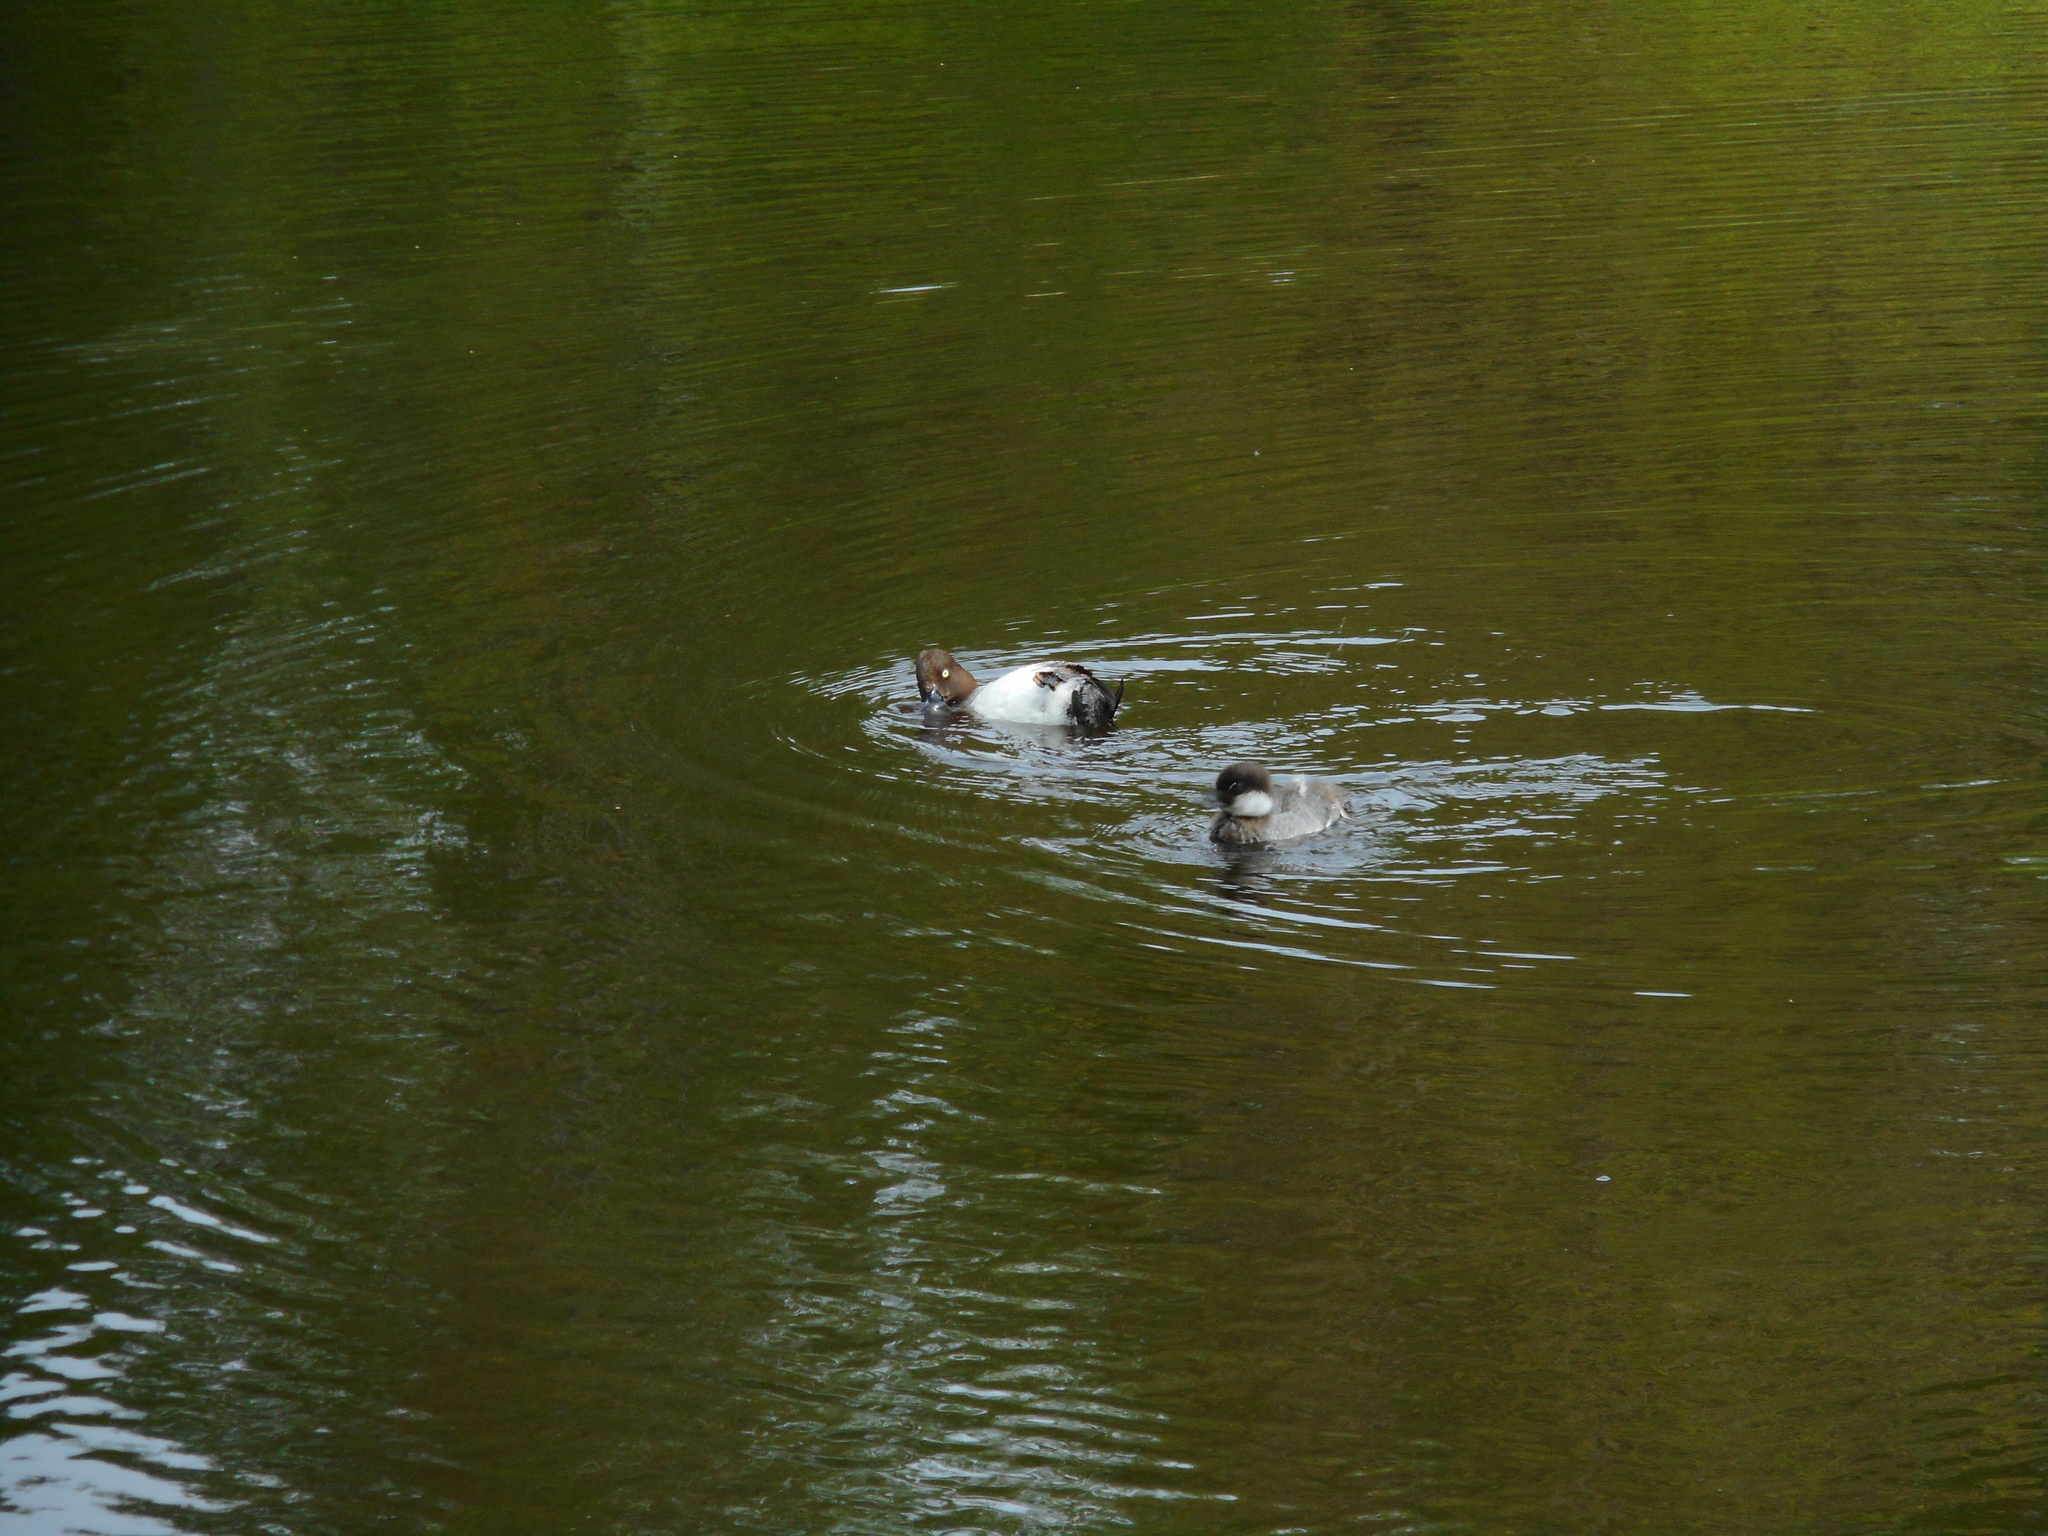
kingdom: Animalia
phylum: Chordata
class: Aves
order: Anseriformes
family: Anatidae
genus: Bucephala
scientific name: Bucephala clangula
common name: Common goldeneye
